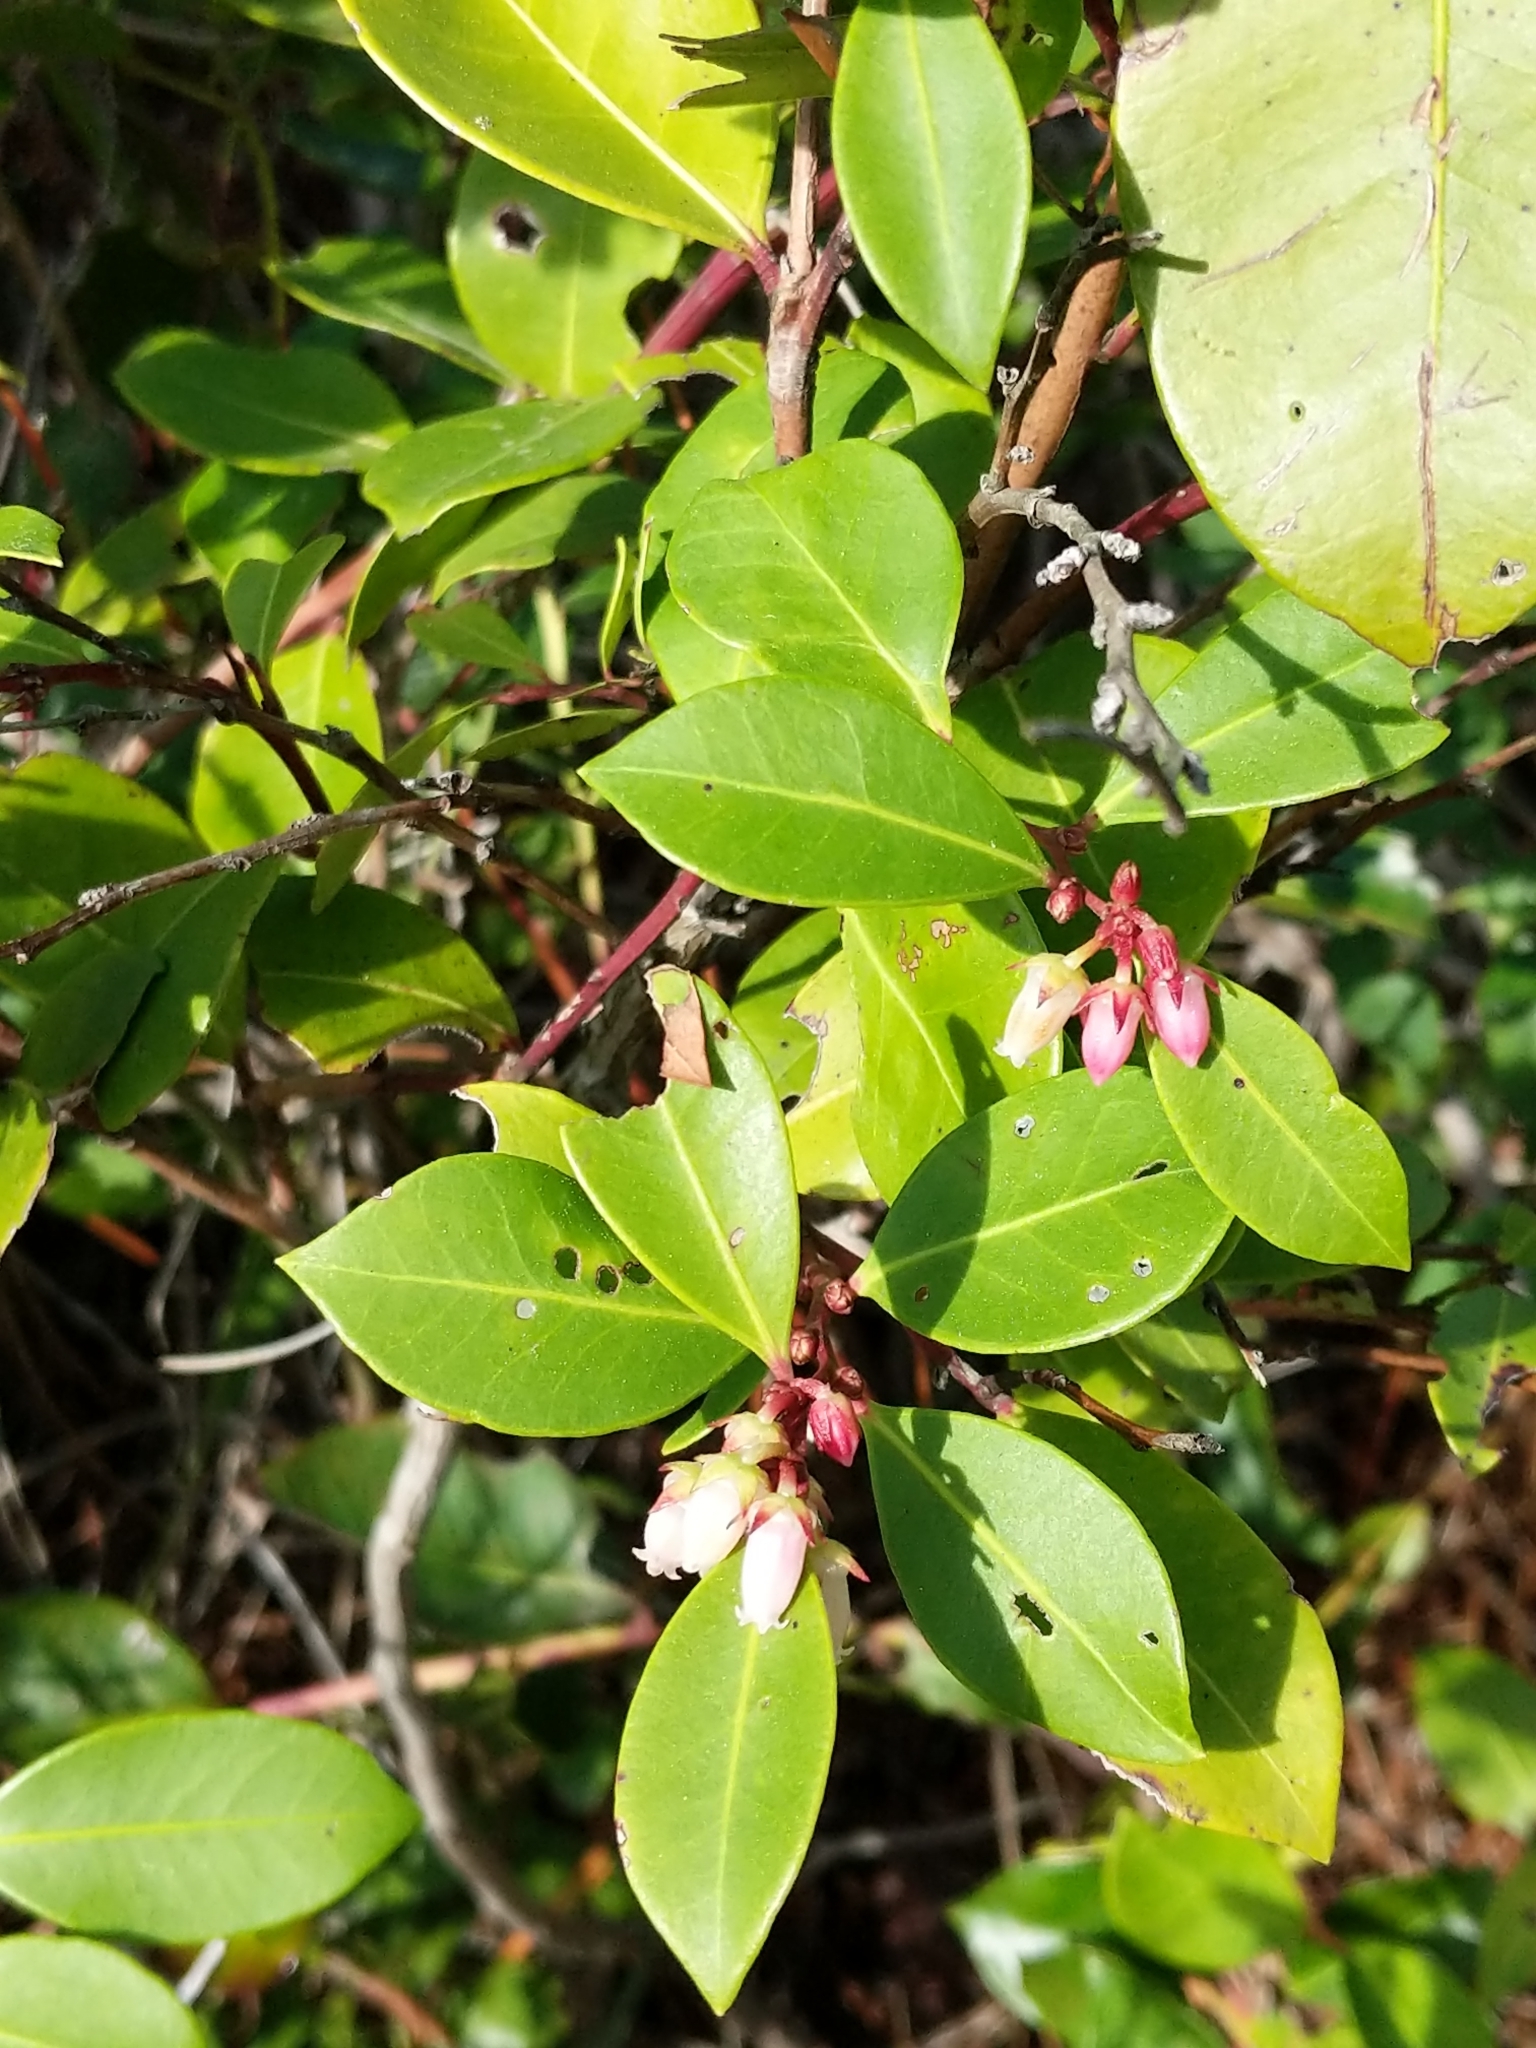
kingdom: Plantae
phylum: Tracheophyta
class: Magnoliopsida
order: Ericales
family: Ericaceae
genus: Lyonia
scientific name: Lyonia lucida
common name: Fetterbush
